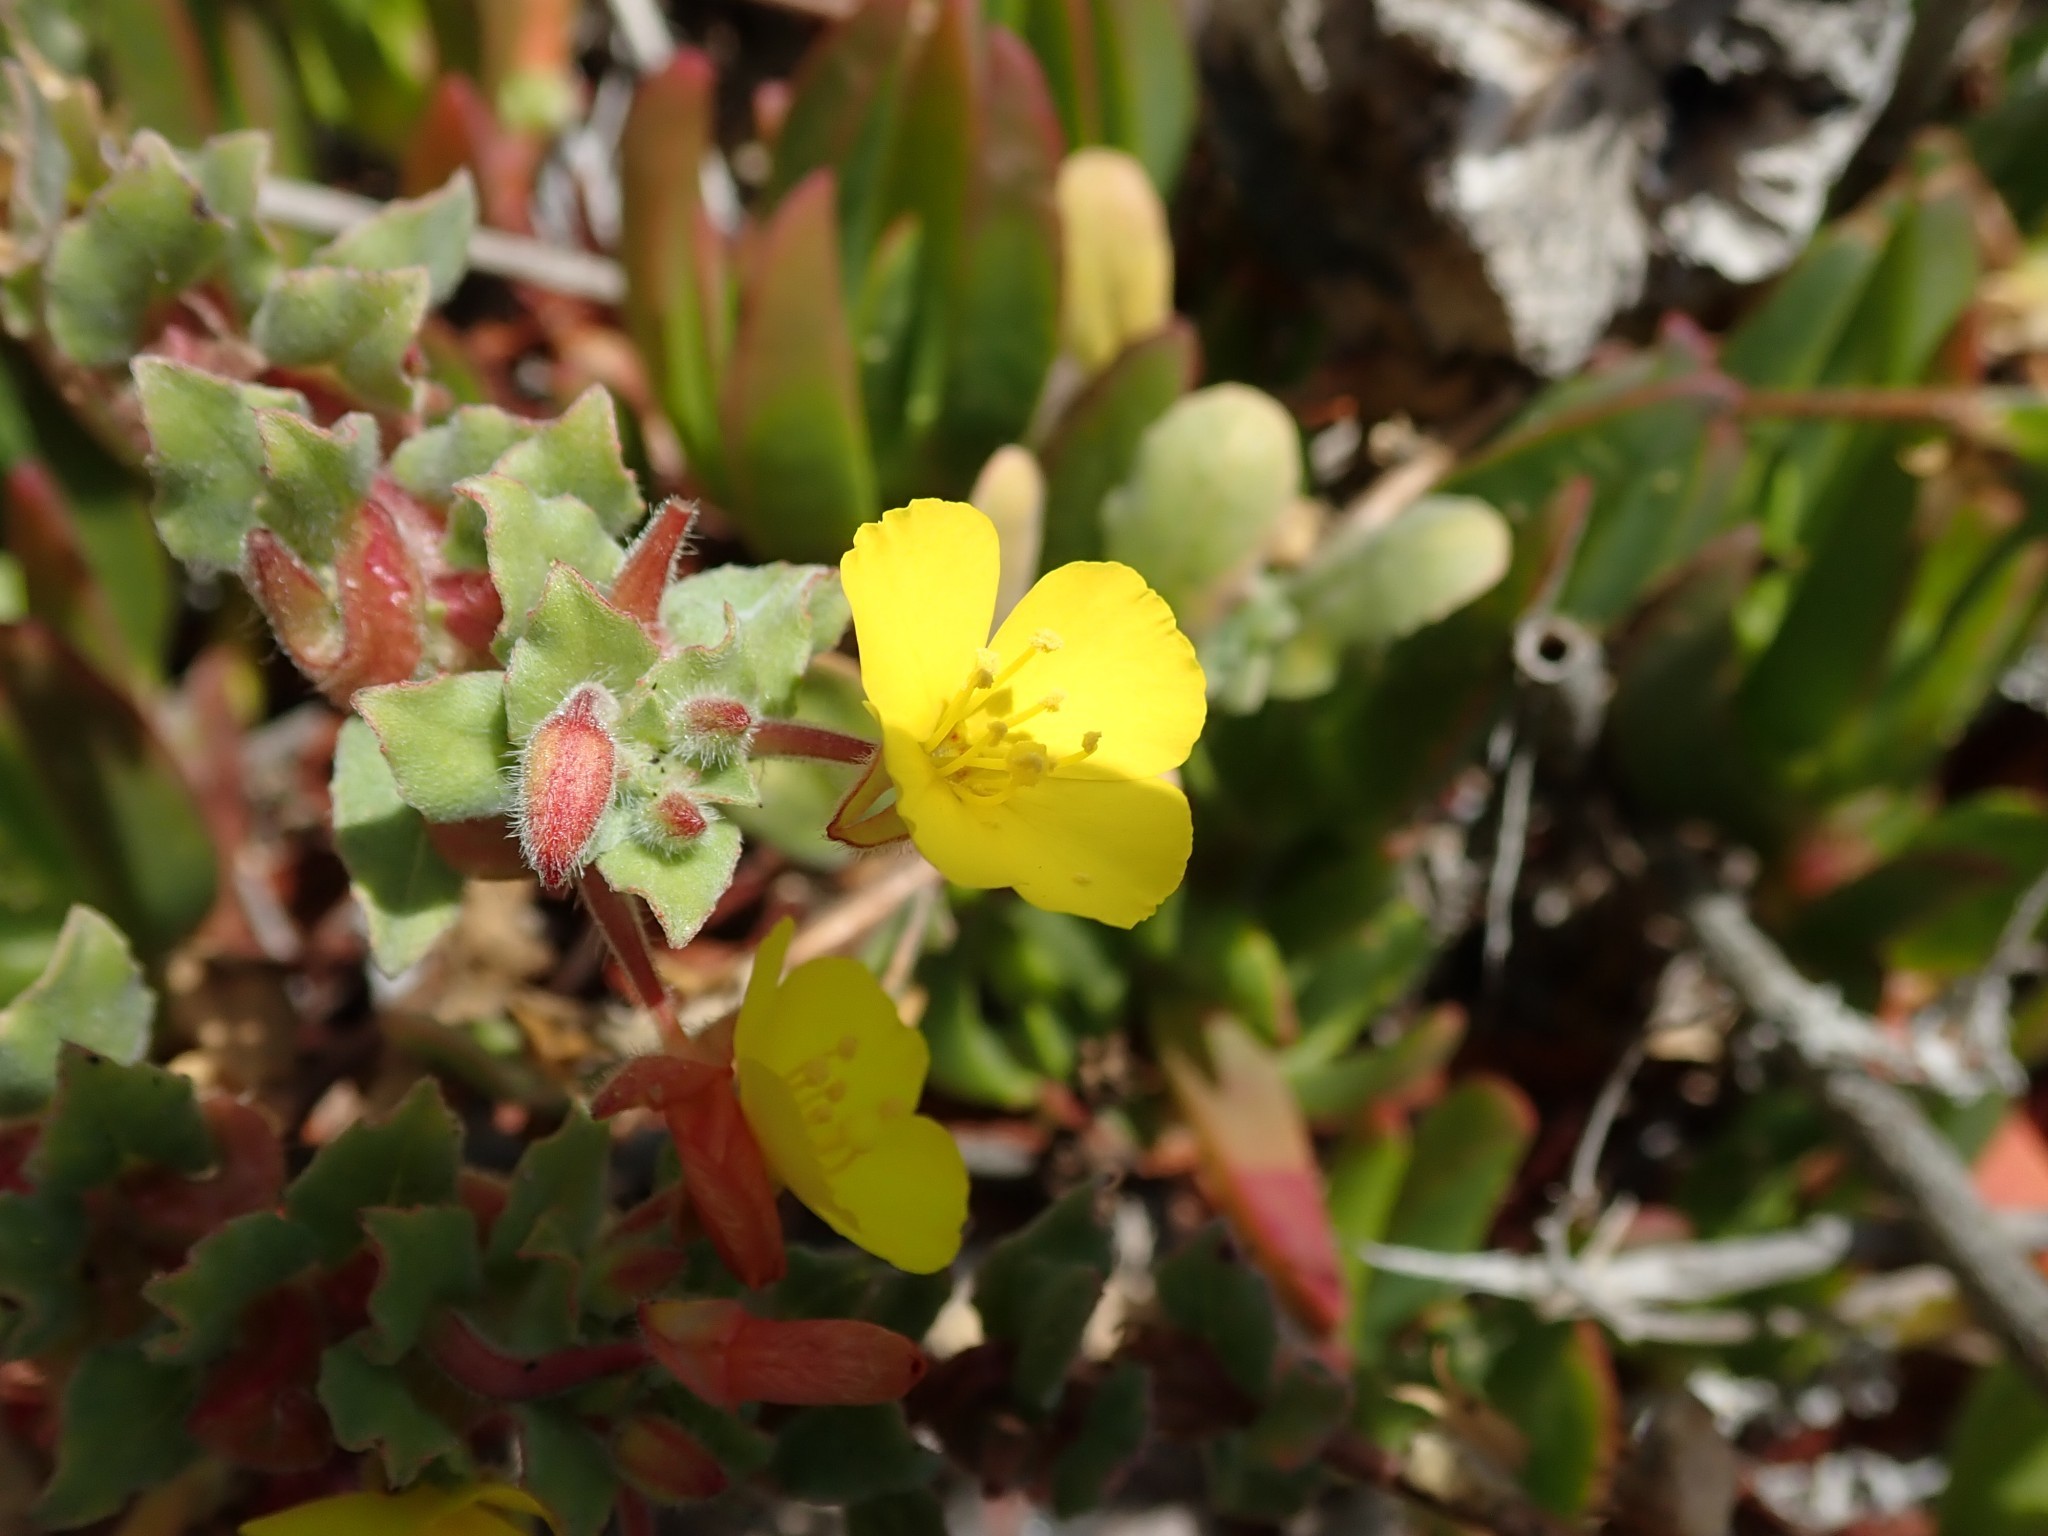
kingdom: Plantae
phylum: Tracheophyta
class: Magnoliopsida
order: Myrtales
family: Onagraceae
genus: Camissoniopsis
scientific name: Camissoniopsis cheiranthifolia
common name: Beach suncup
